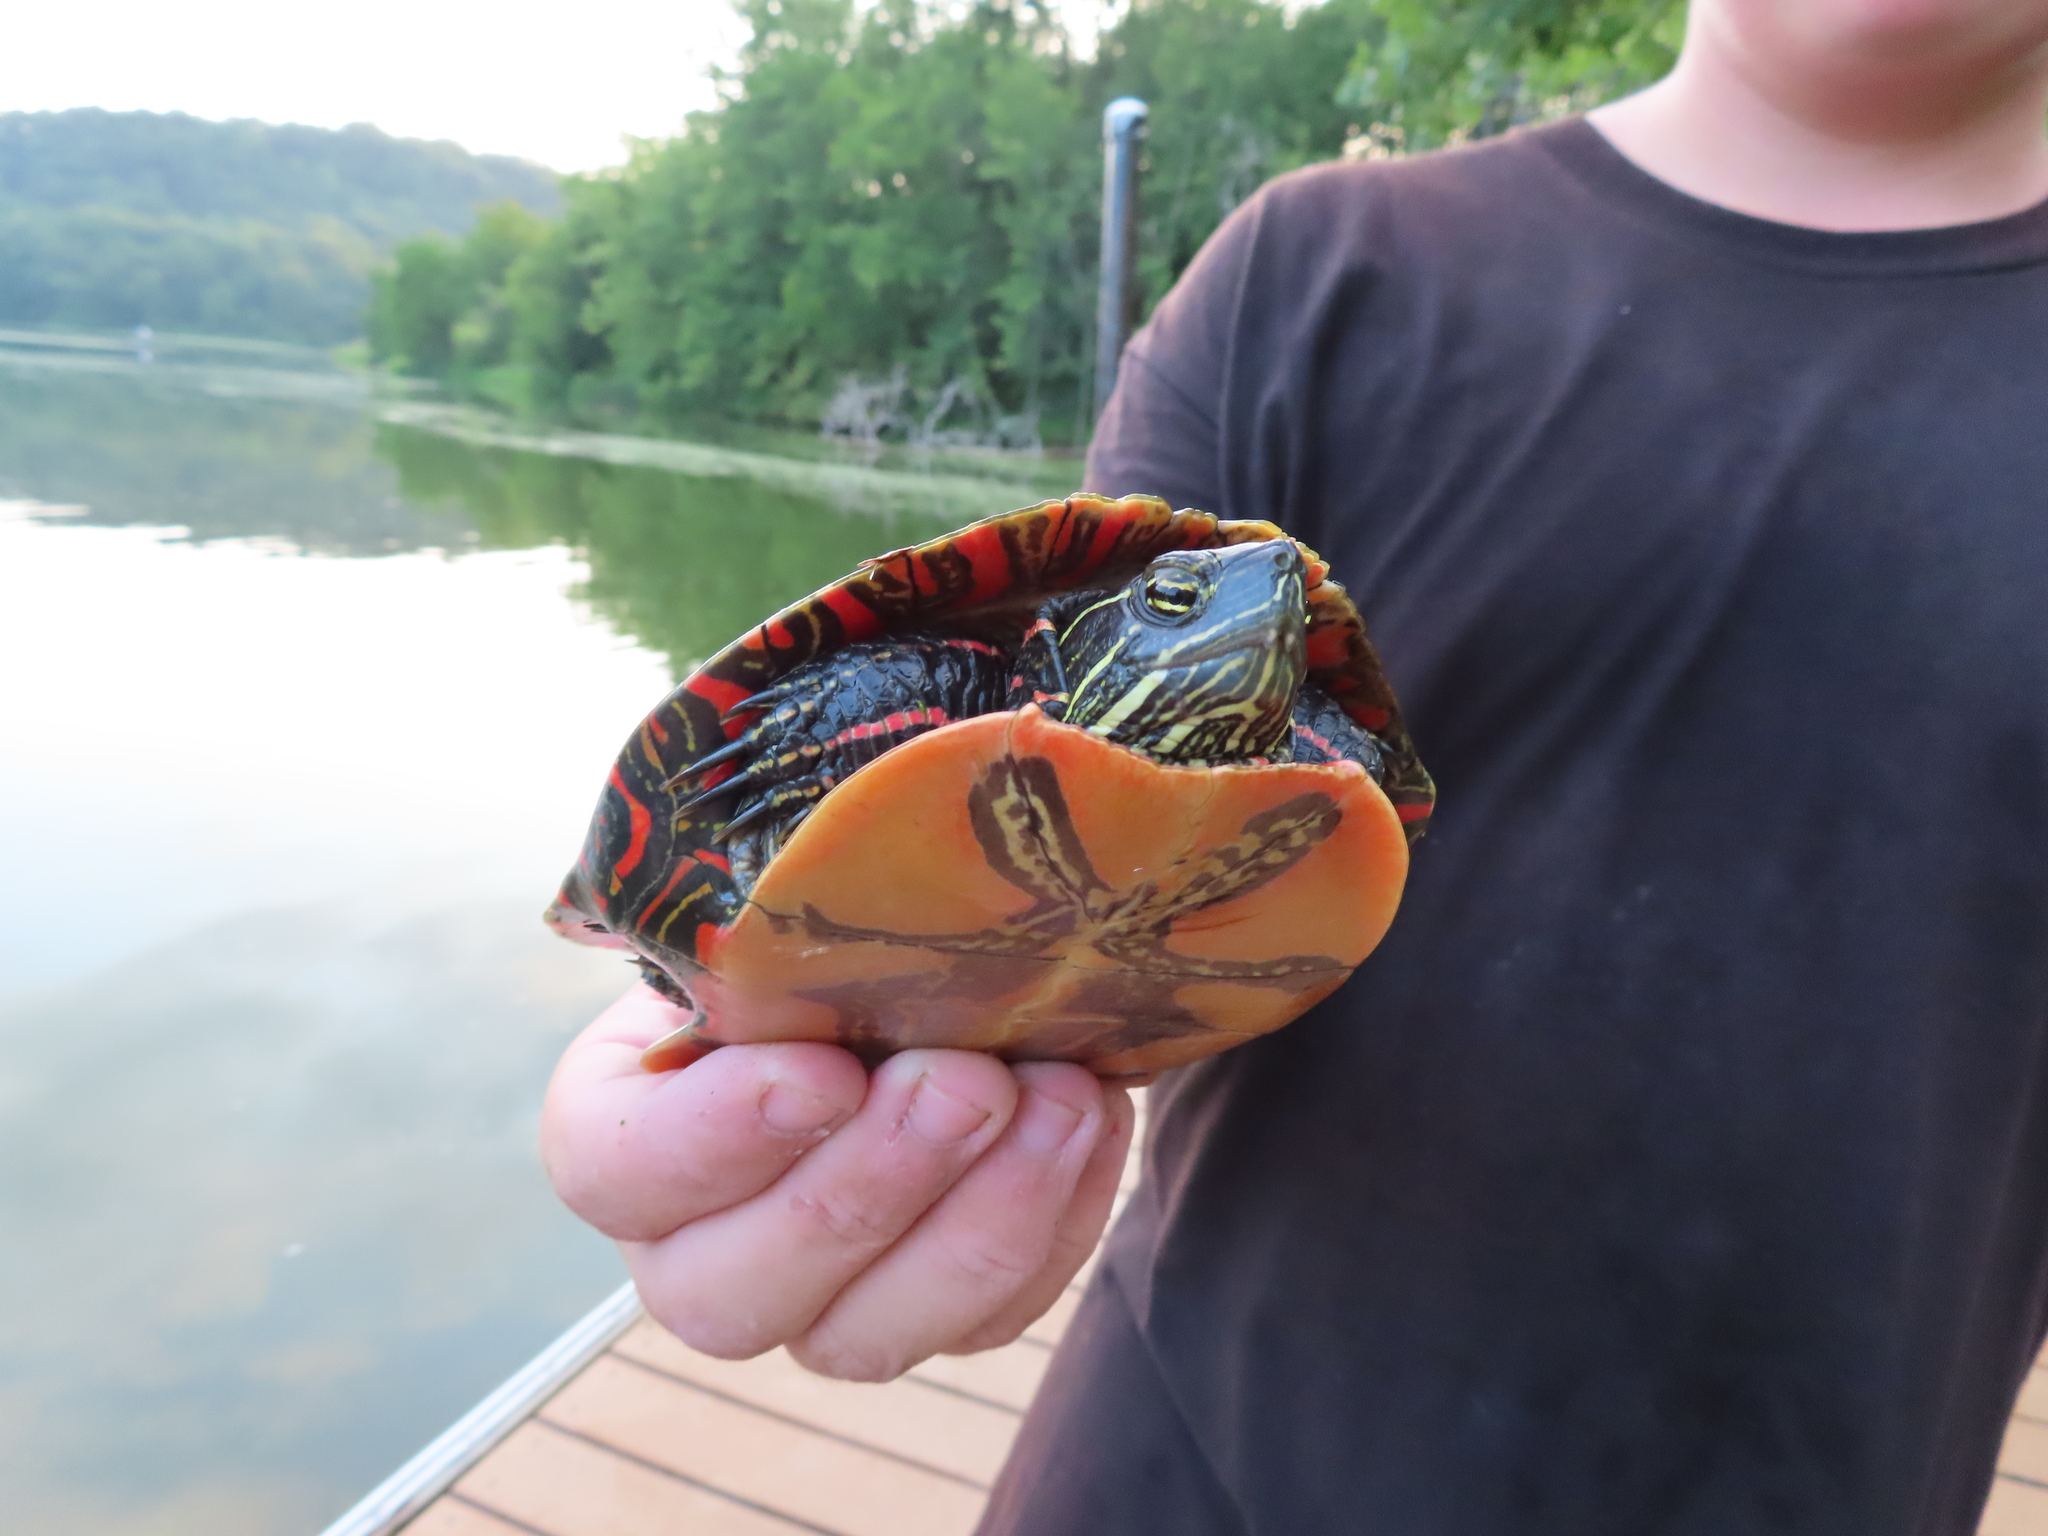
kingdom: Animalia
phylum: Chordata
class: Testudines
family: Emydidae
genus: Chrysemys
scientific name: Chrysemys picta
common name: Painted turtle
